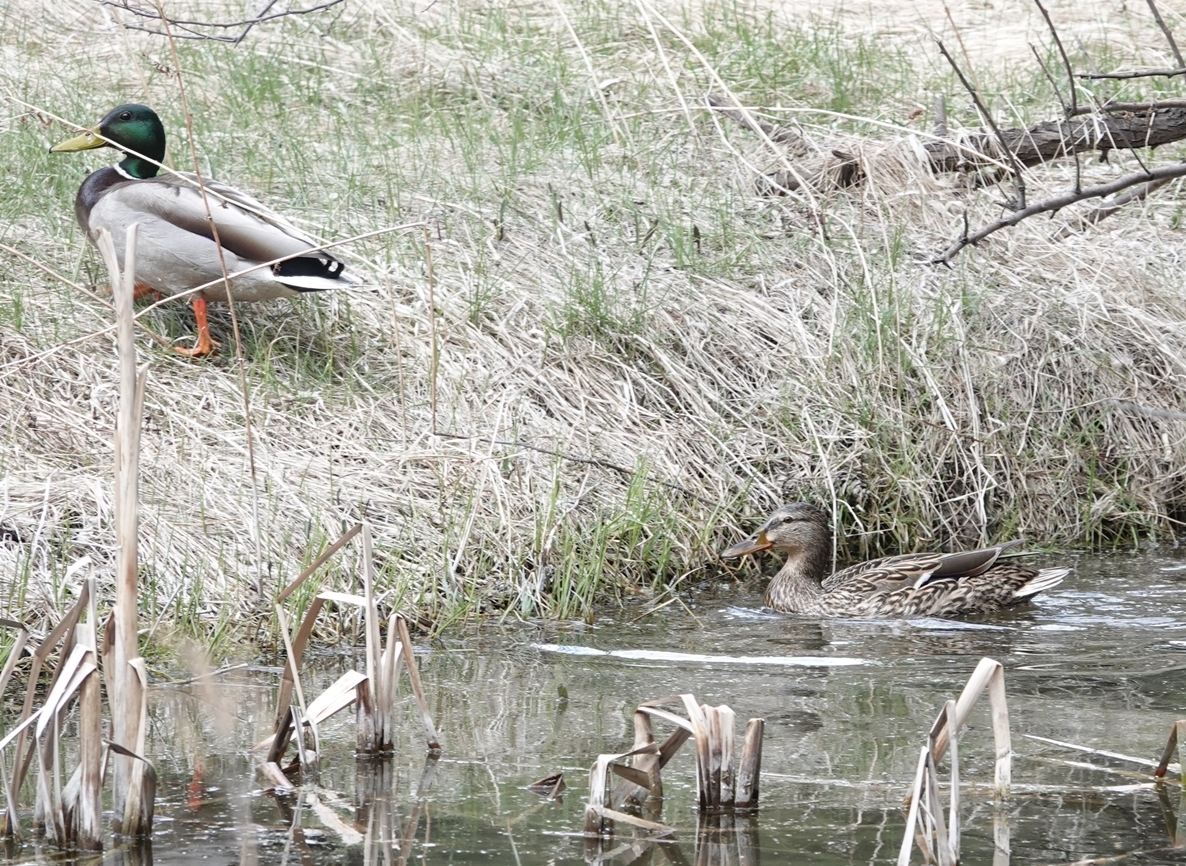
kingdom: Animalia
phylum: Chordata
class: Aves
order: Anseriformes
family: Anatidae
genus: Anas
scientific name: Anas platyrhynchos
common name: Mallard
